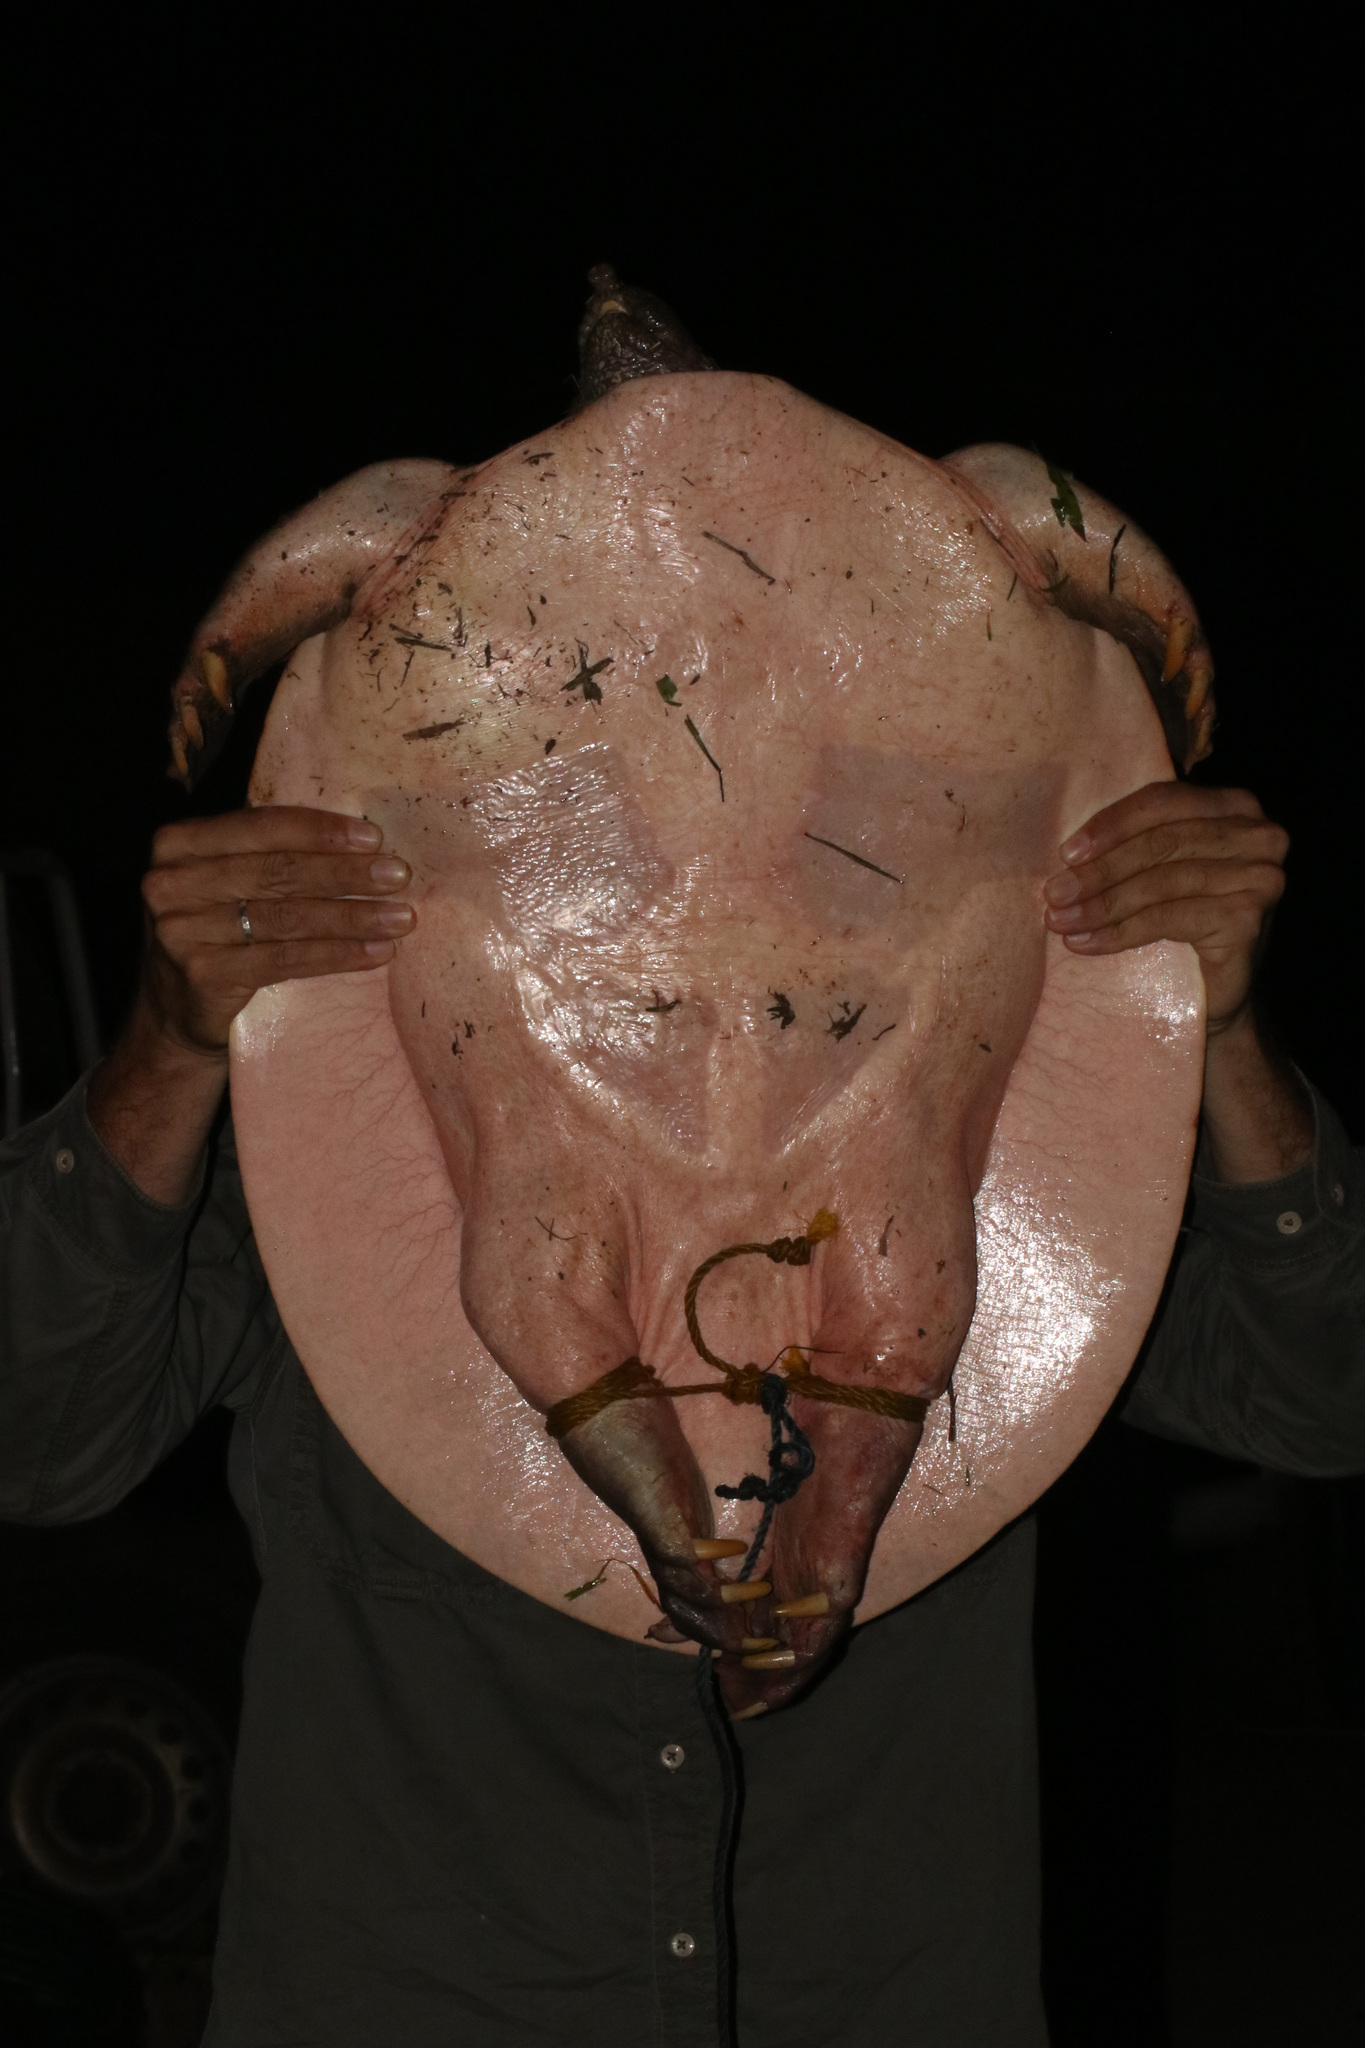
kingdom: Animalia
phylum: Chordata
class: Testudines
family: Trionychidae
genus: Trionyx
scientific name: Trionyx triunguis
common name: African softshell turtle
